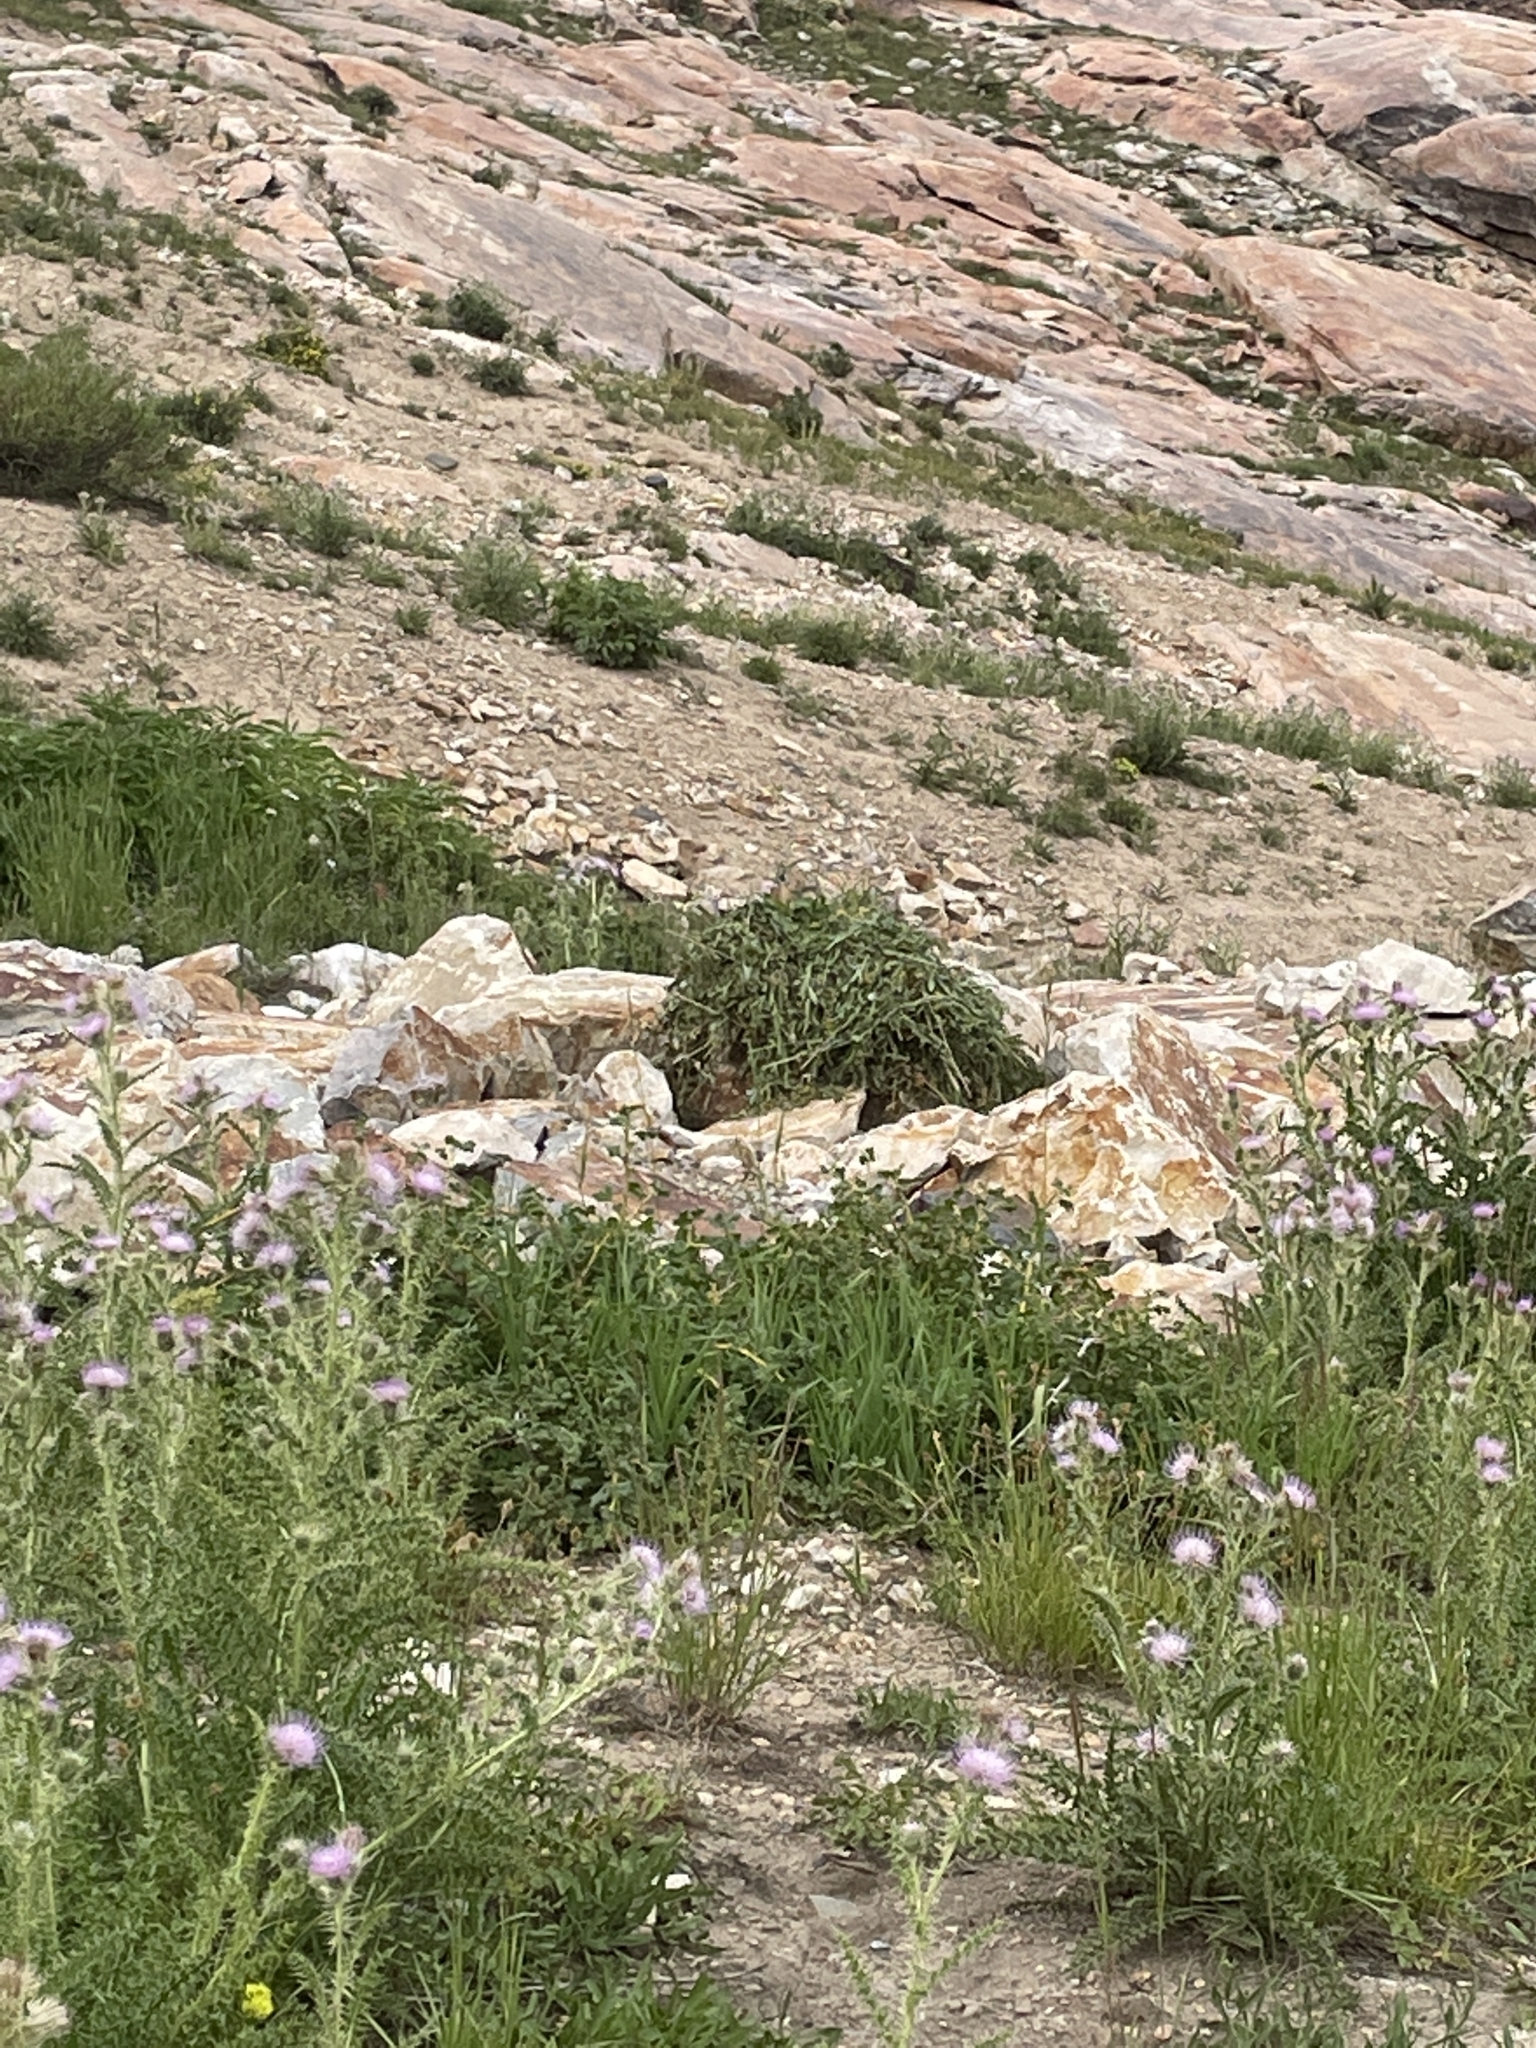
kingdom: Animalia
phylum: Chordata
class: Mammalia
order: Lagomorpha
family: Ochotonidae
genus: Ochotona
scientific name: Ochotona princeps
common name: American pika
